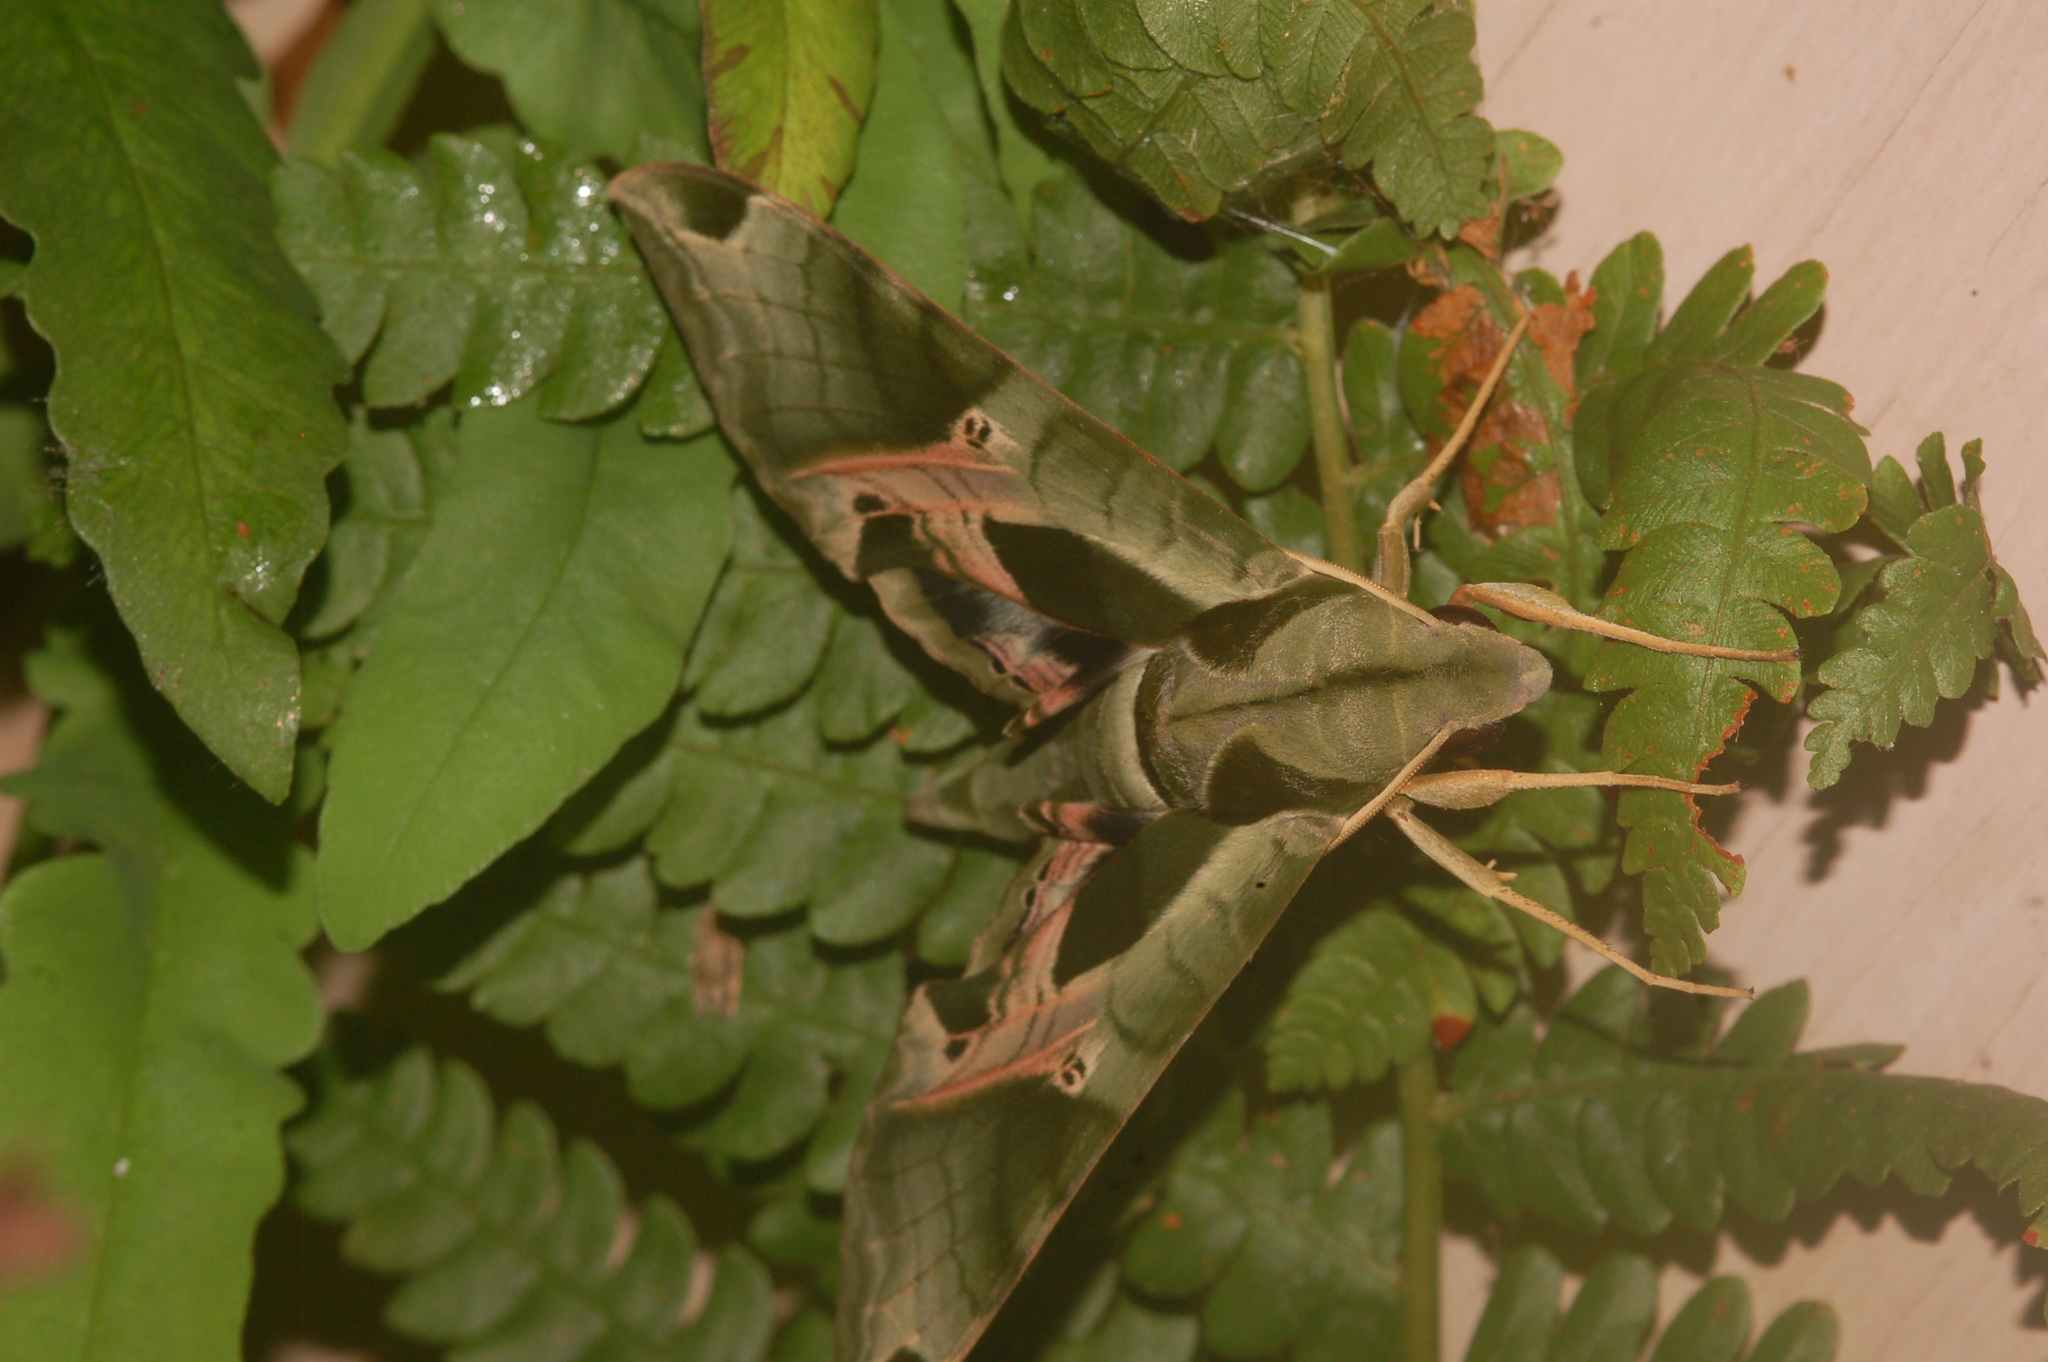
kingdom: Animalia
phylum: Arthropoda
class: Insecta
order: Lepidoptera
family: Sphingidae
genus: Eumorpha
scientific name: Eumorpha pandorus
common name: Pandora sphinx
